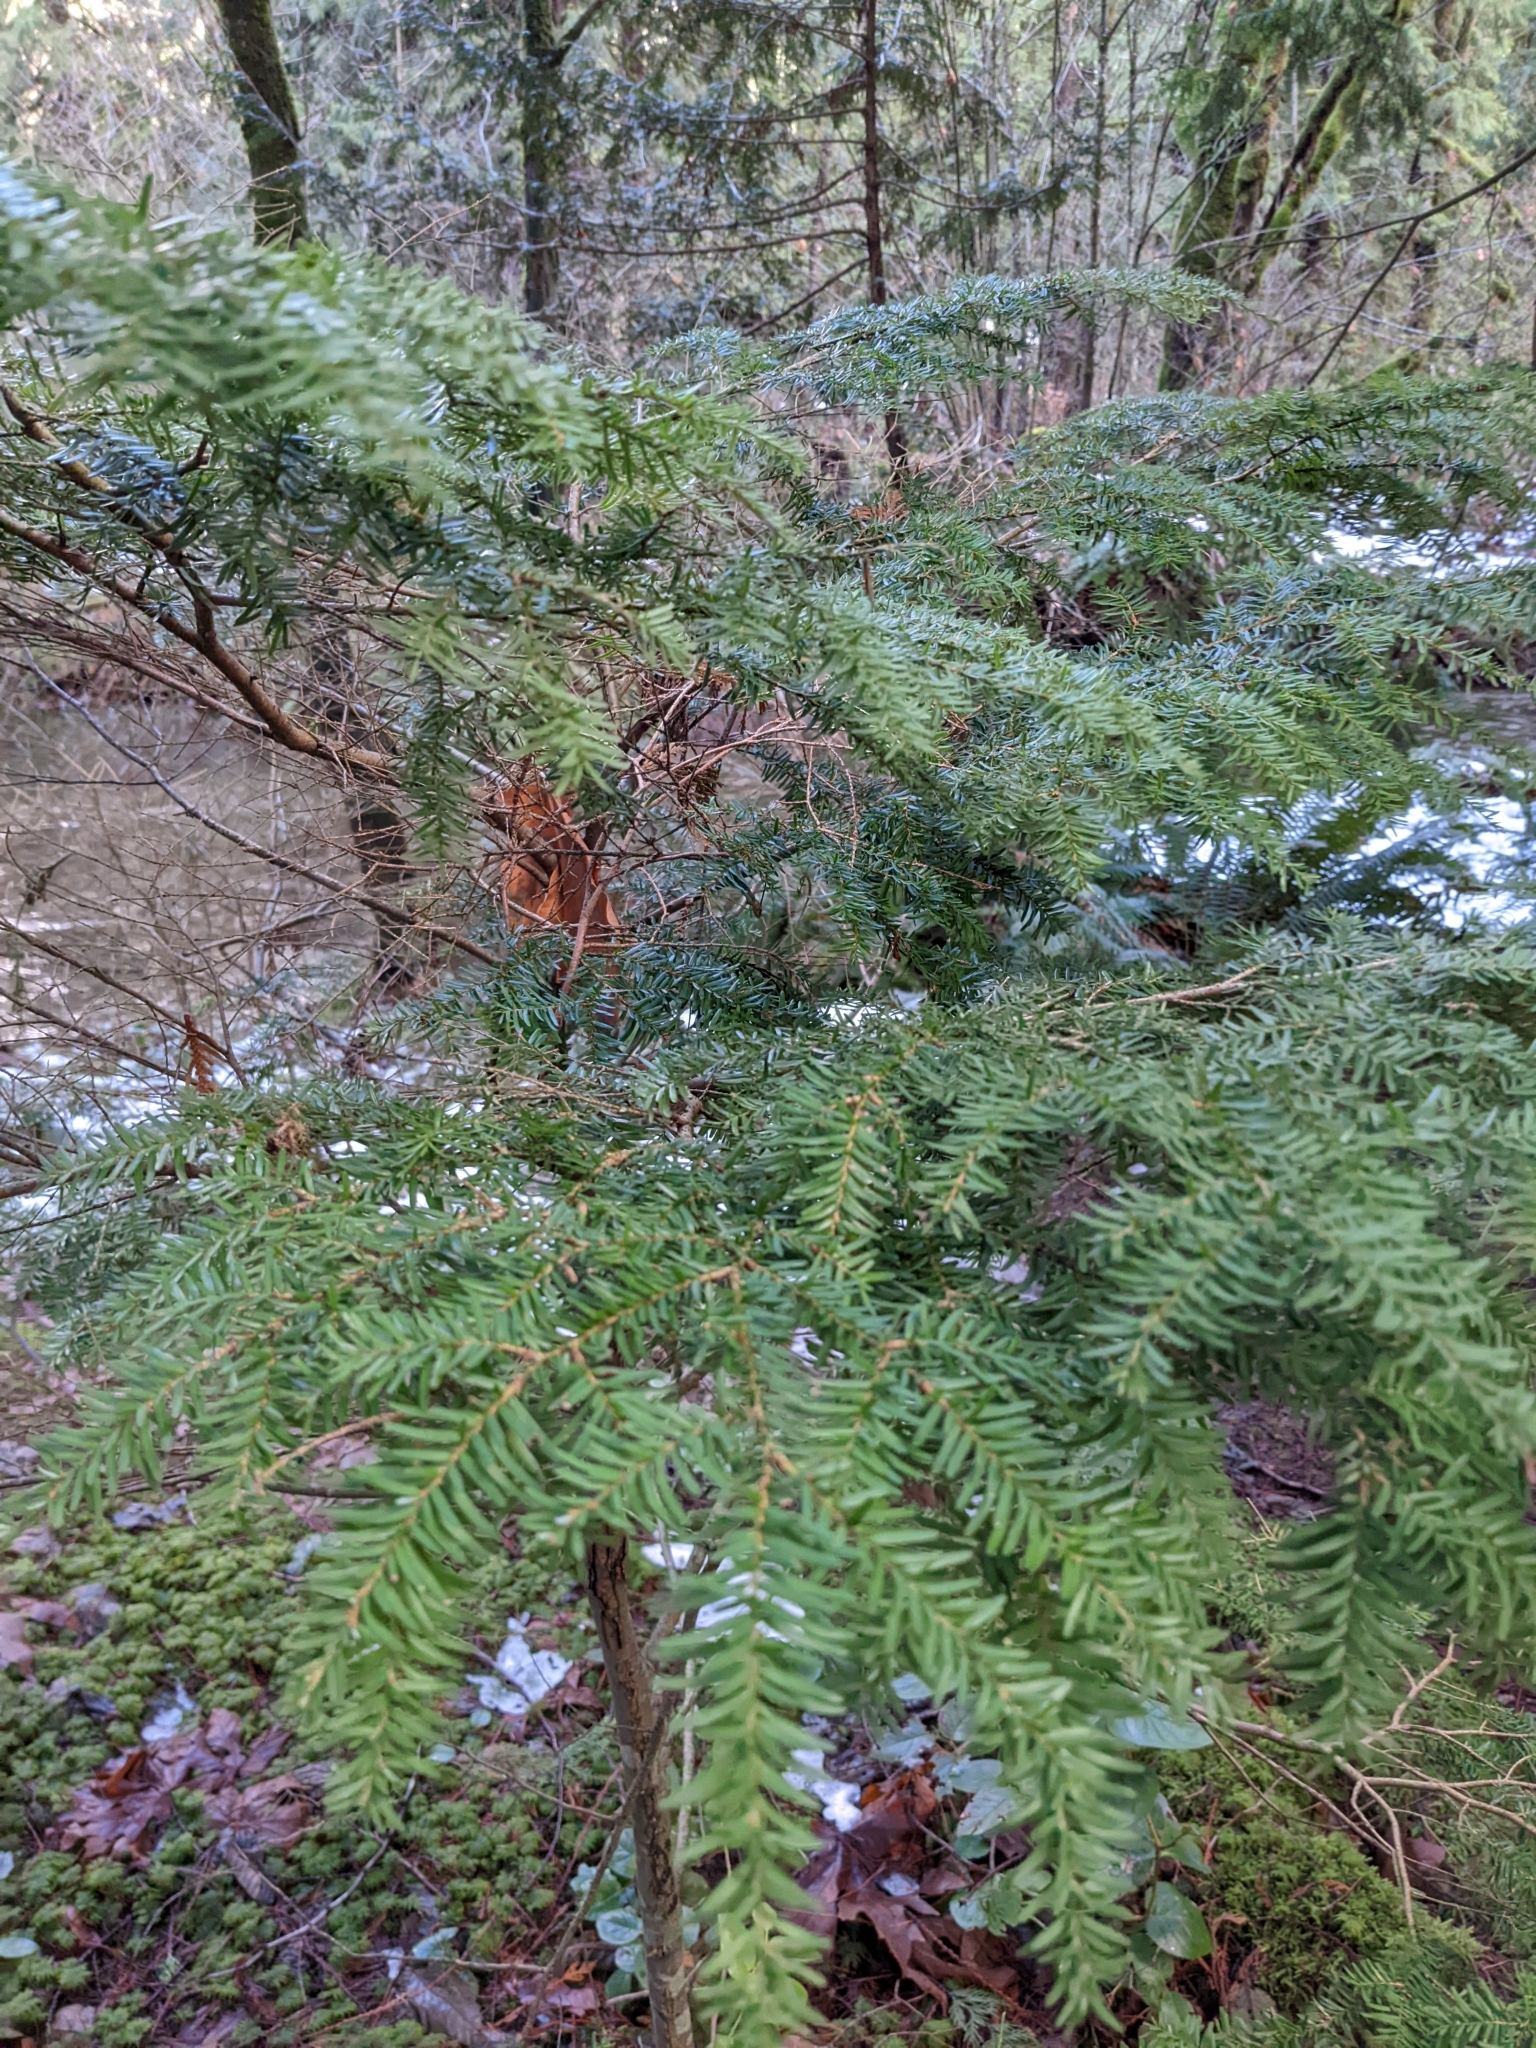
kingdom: Plantae
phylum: Tracheophyta
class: Pinopsida
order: Pinales
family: Pinaceae
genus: Tsuga
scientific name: Tsuga heterophylla
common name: Western hemlock
